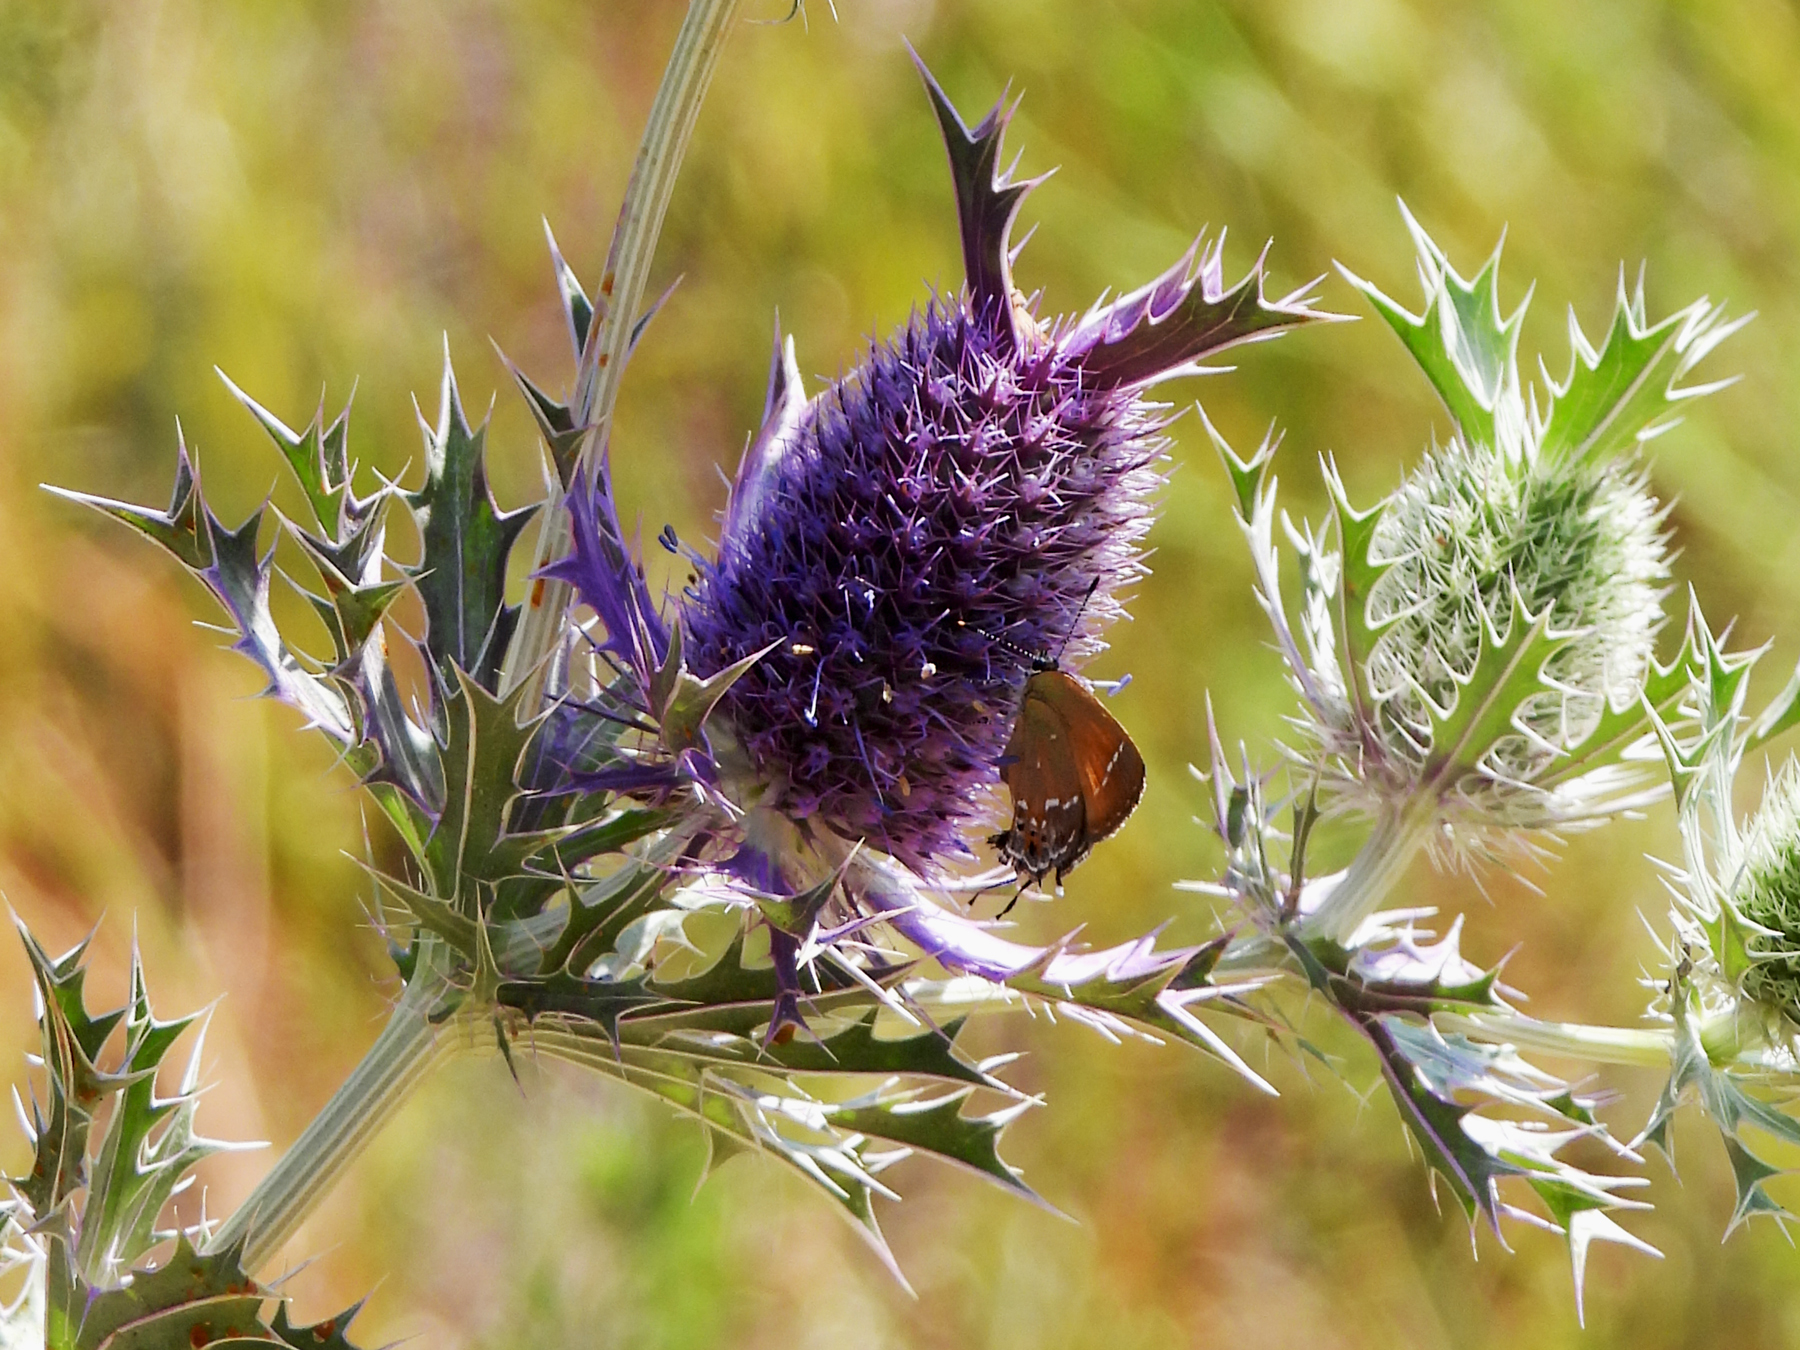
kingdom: Plantae
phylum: Tracheophyta
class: Magnoliopsida
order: Apiales
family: Apiaceae
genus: Eryngium
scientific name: Eryngium leavenworthii
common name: Leavenworth's eryngo
